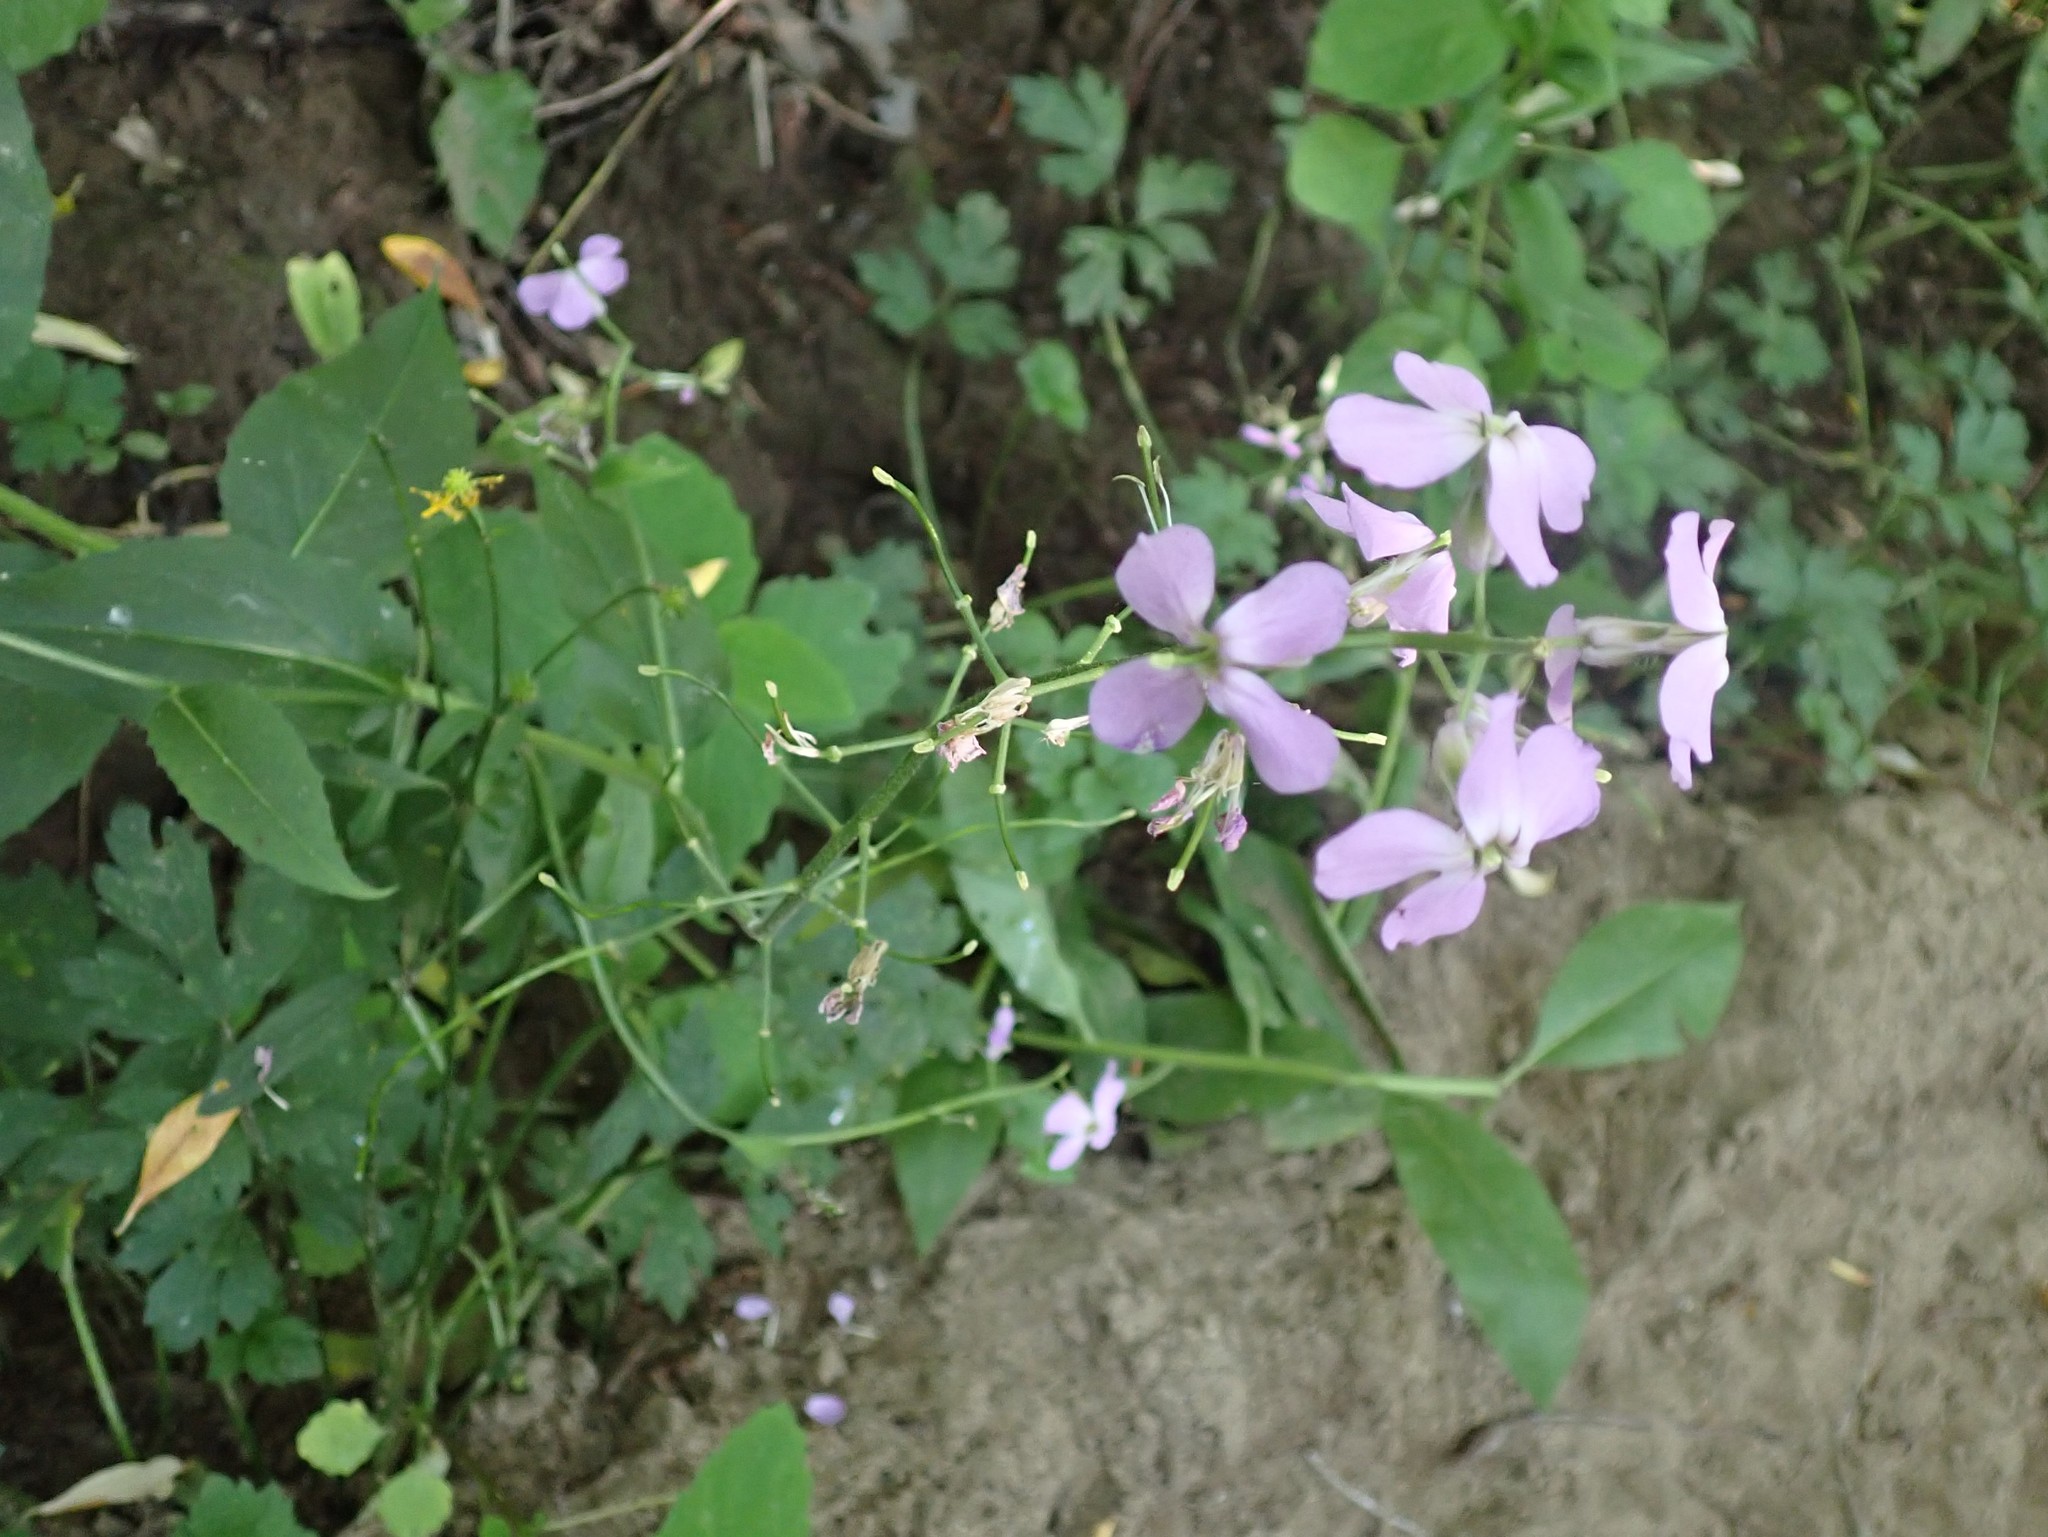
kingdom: Plantae
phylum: Tracheophyta
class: Magnoliopsida
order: Brassicales
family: Brassicaceae
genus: Hesperis
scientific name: Hesperis matronalis
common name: Dame's-violet
